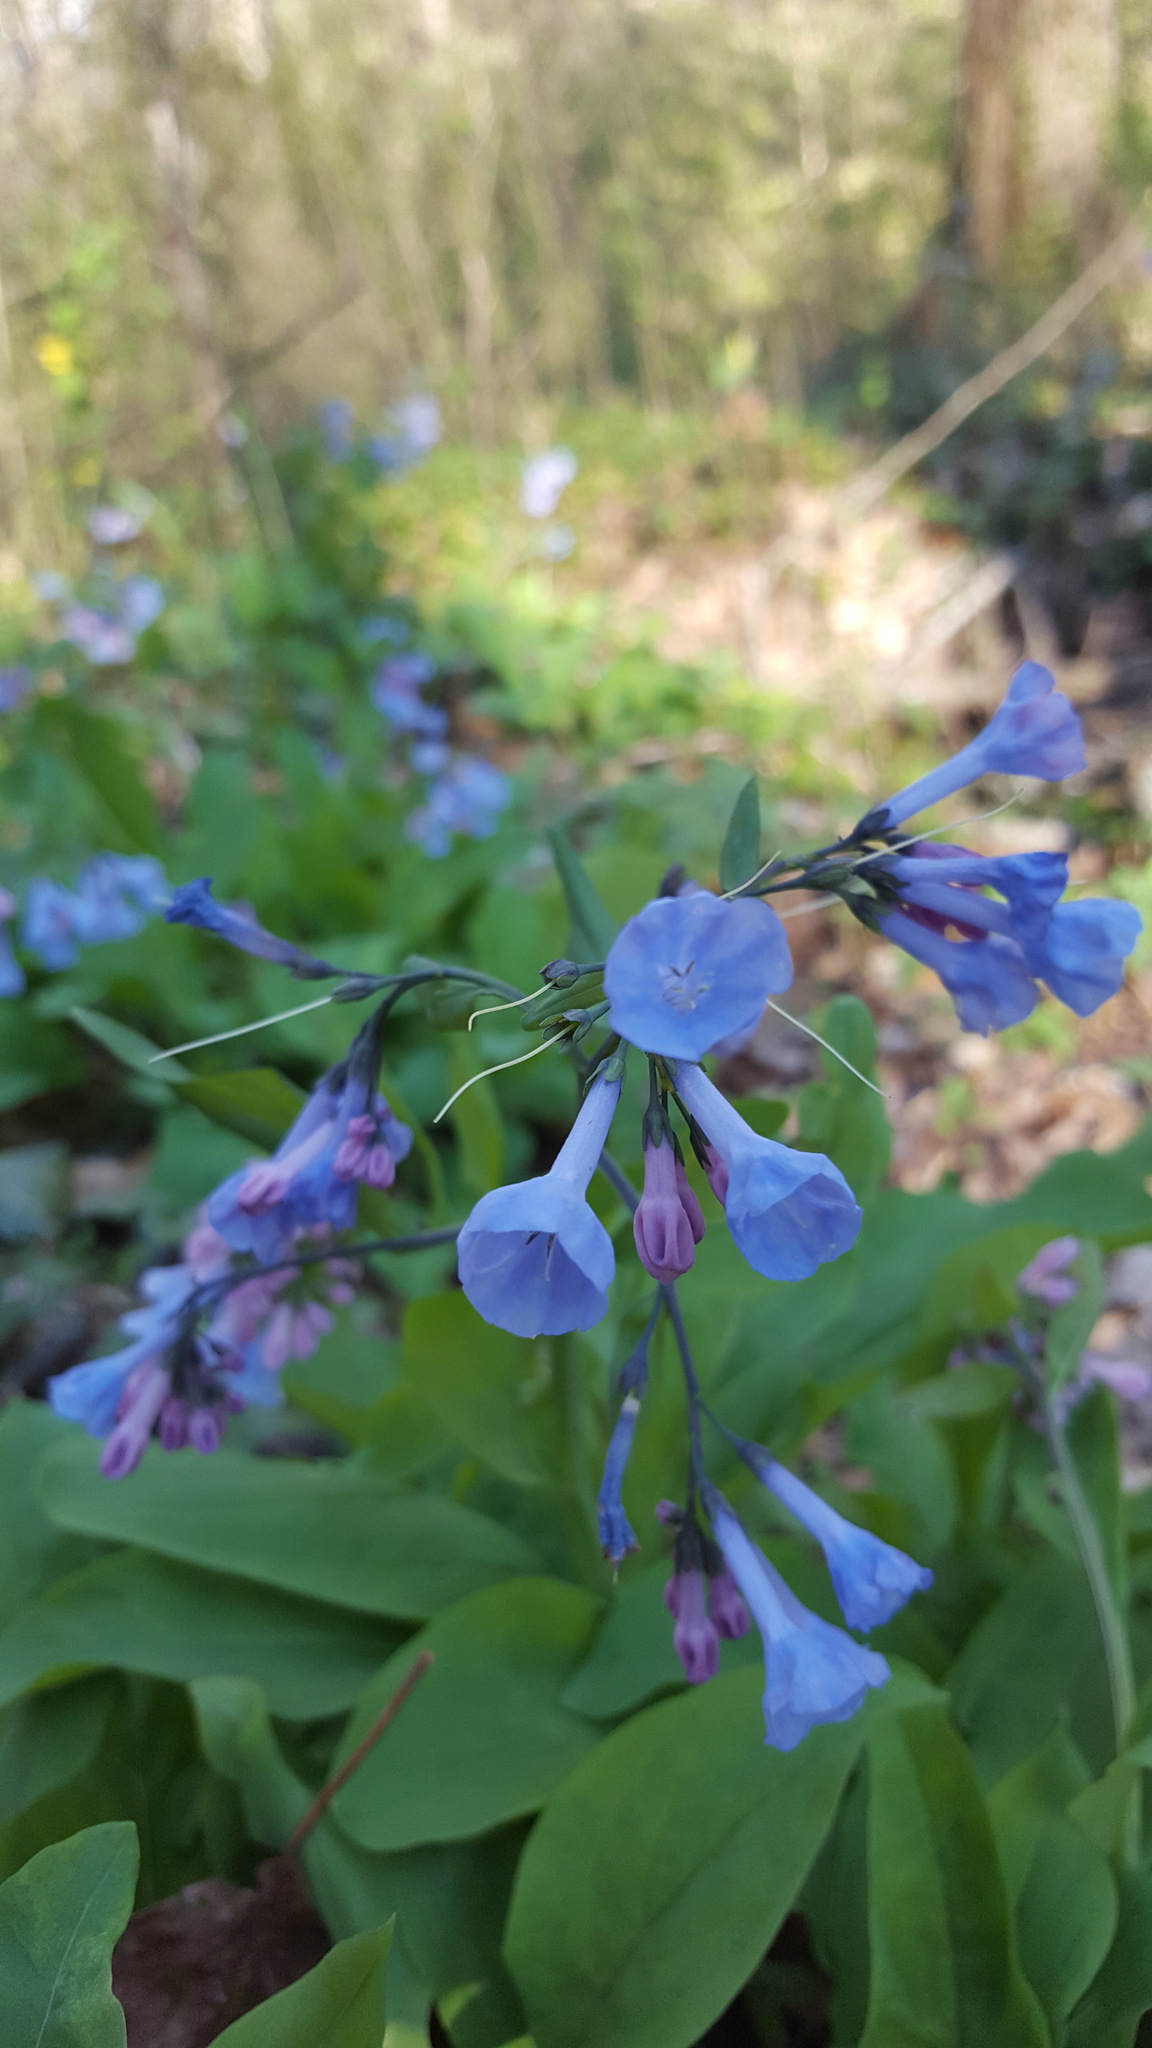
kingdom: Plantae
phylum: Tracheophyta
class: Magnoliopsida
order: Boraginales
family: Boraginaceae
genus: Mertensia
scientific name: Mertensia virginica
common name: Virginia bluebells
